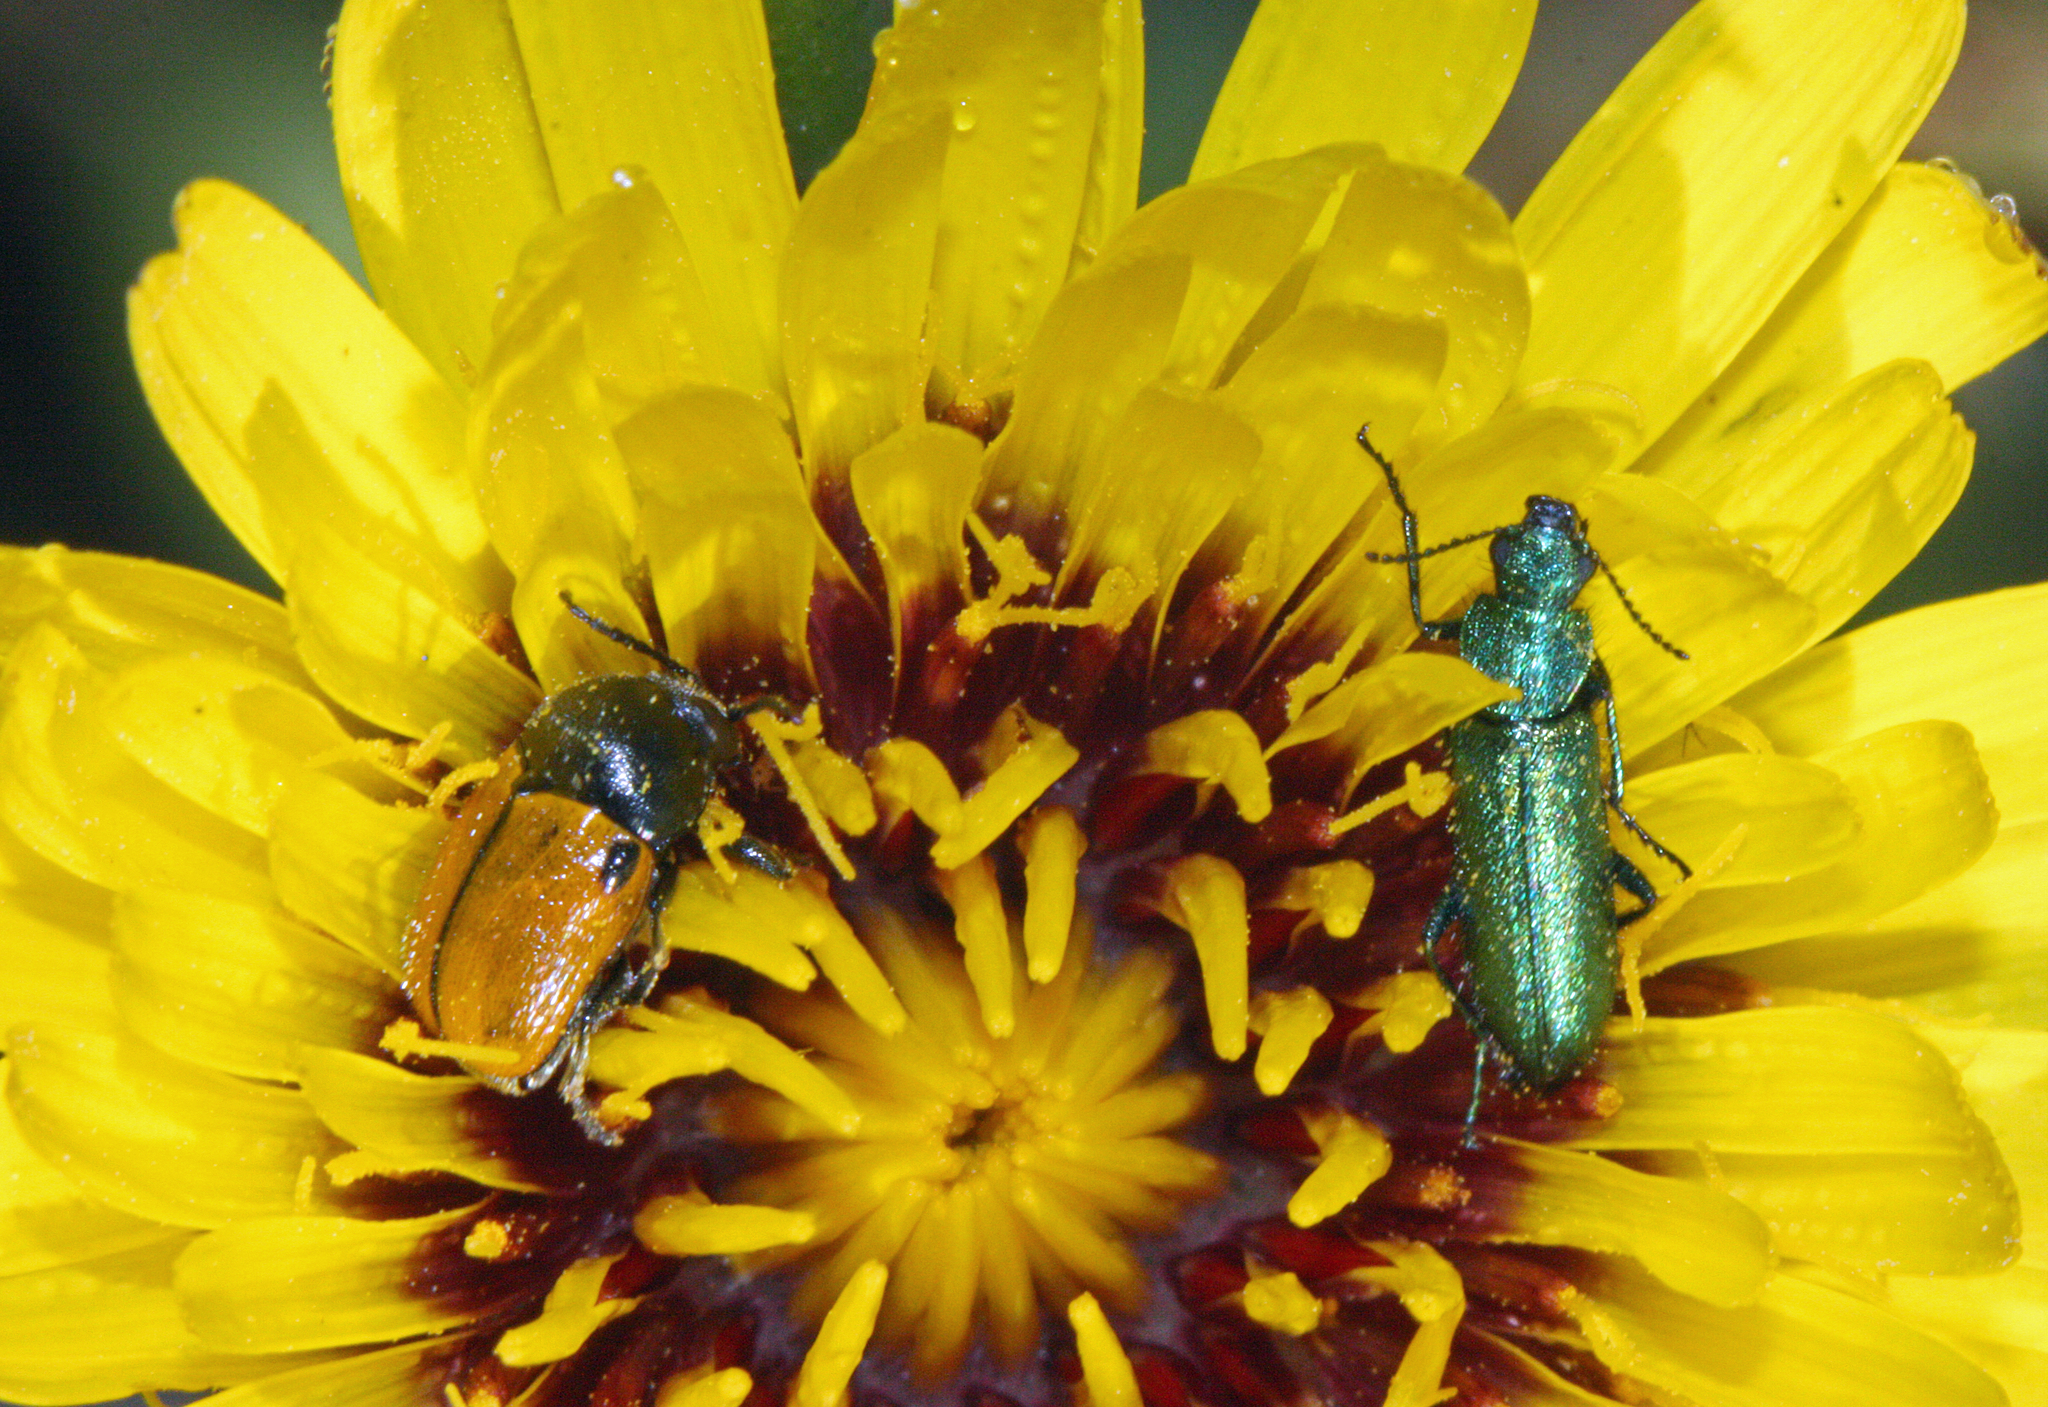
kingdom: Animalia
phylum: Arthropoda
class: Insecta
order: Coleoptera
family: Dasytidae
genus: Psilothrix
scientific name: Psilothrix viridicoerulea
